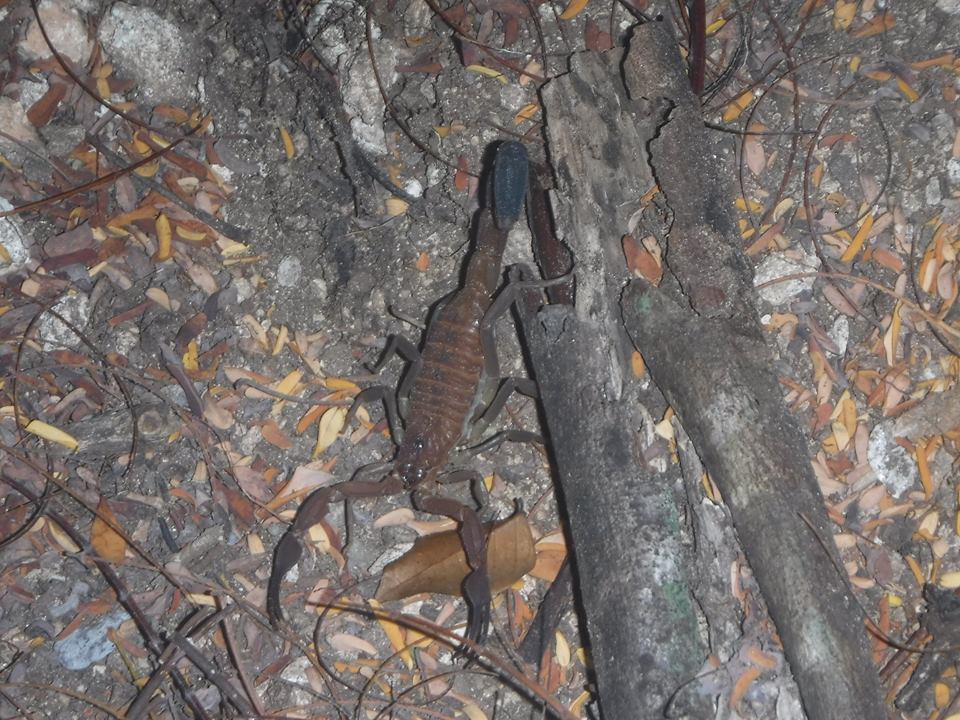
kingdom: Animalia
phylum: Arthropoda
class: Arachnida
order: Scorpiones
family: Buthidae
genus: Heteroctenus
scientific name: Heteroctenus junceus
